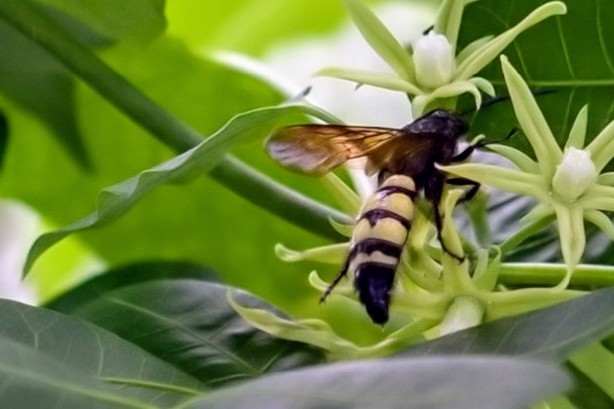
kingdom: Animalia
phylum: Arthropoda
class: Insecta
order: Hymenoptera
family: Scoliidae
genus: Dielis
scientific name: Dielis
